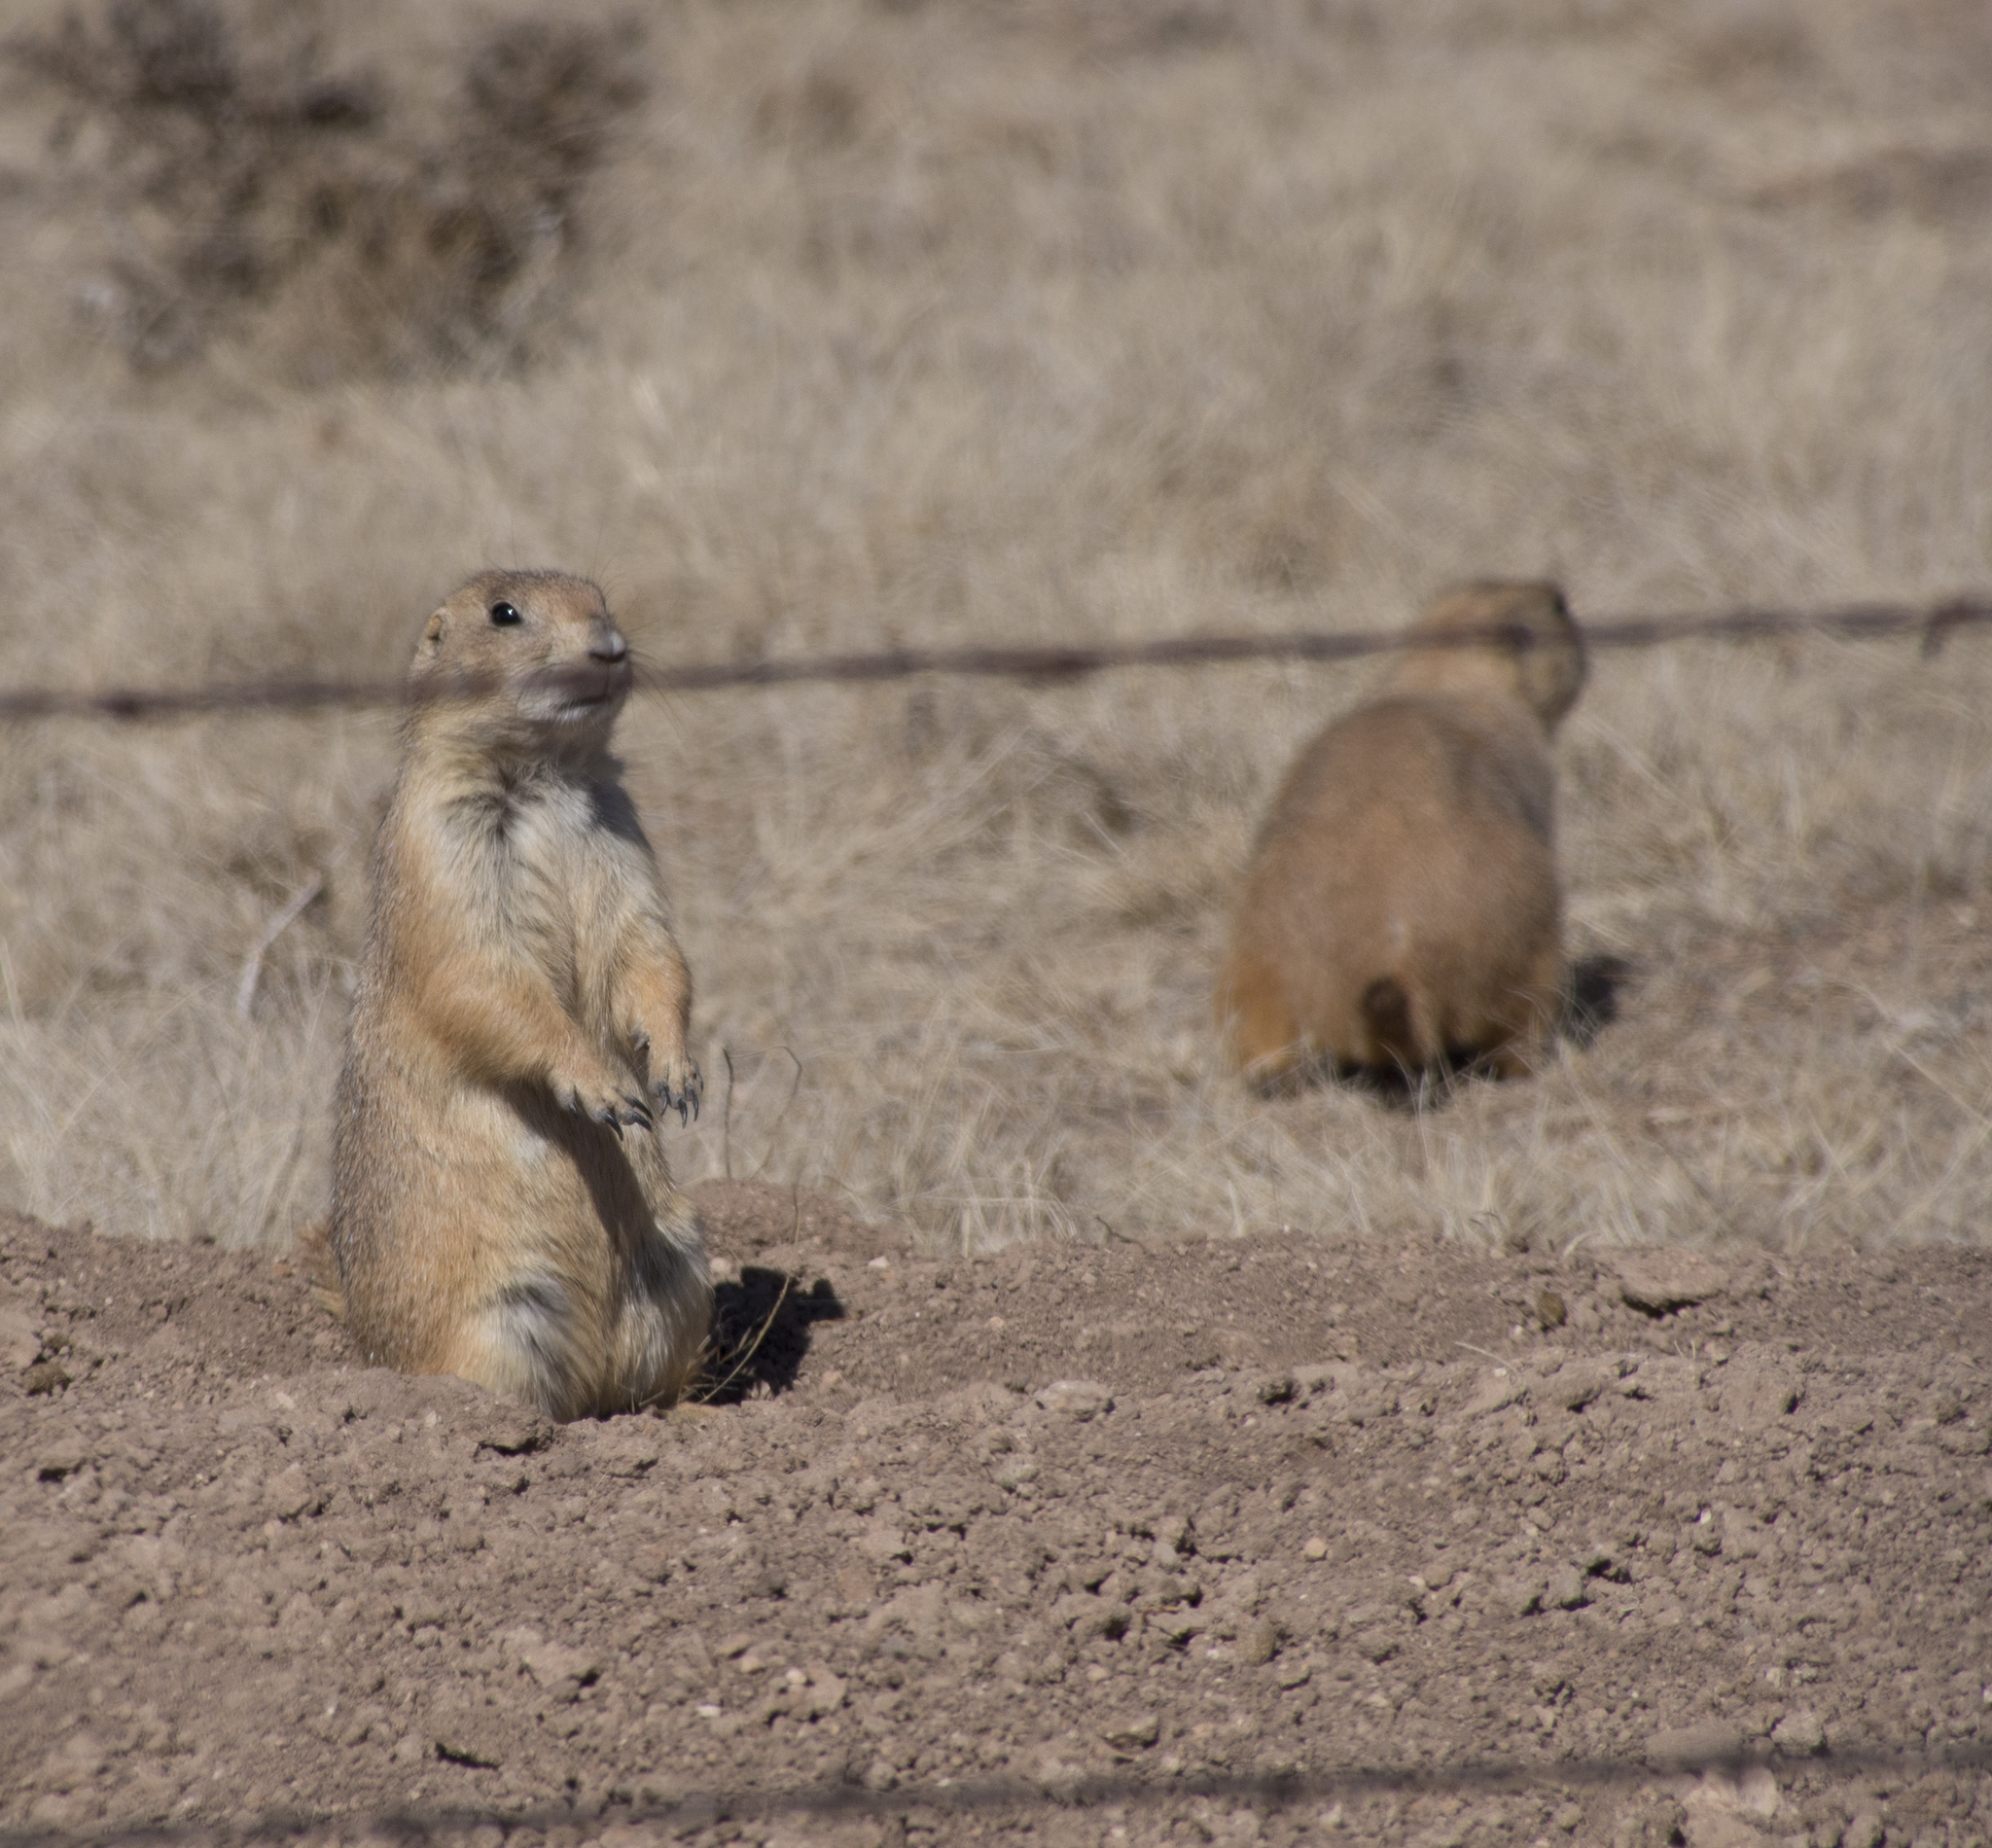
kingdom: Animalia
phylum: Chordata
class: Mammalia
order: Rodentia
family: Sciuridae
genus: Cynomys
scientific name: Cynomys ludovicianus
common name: Black-tailed prairie dog
